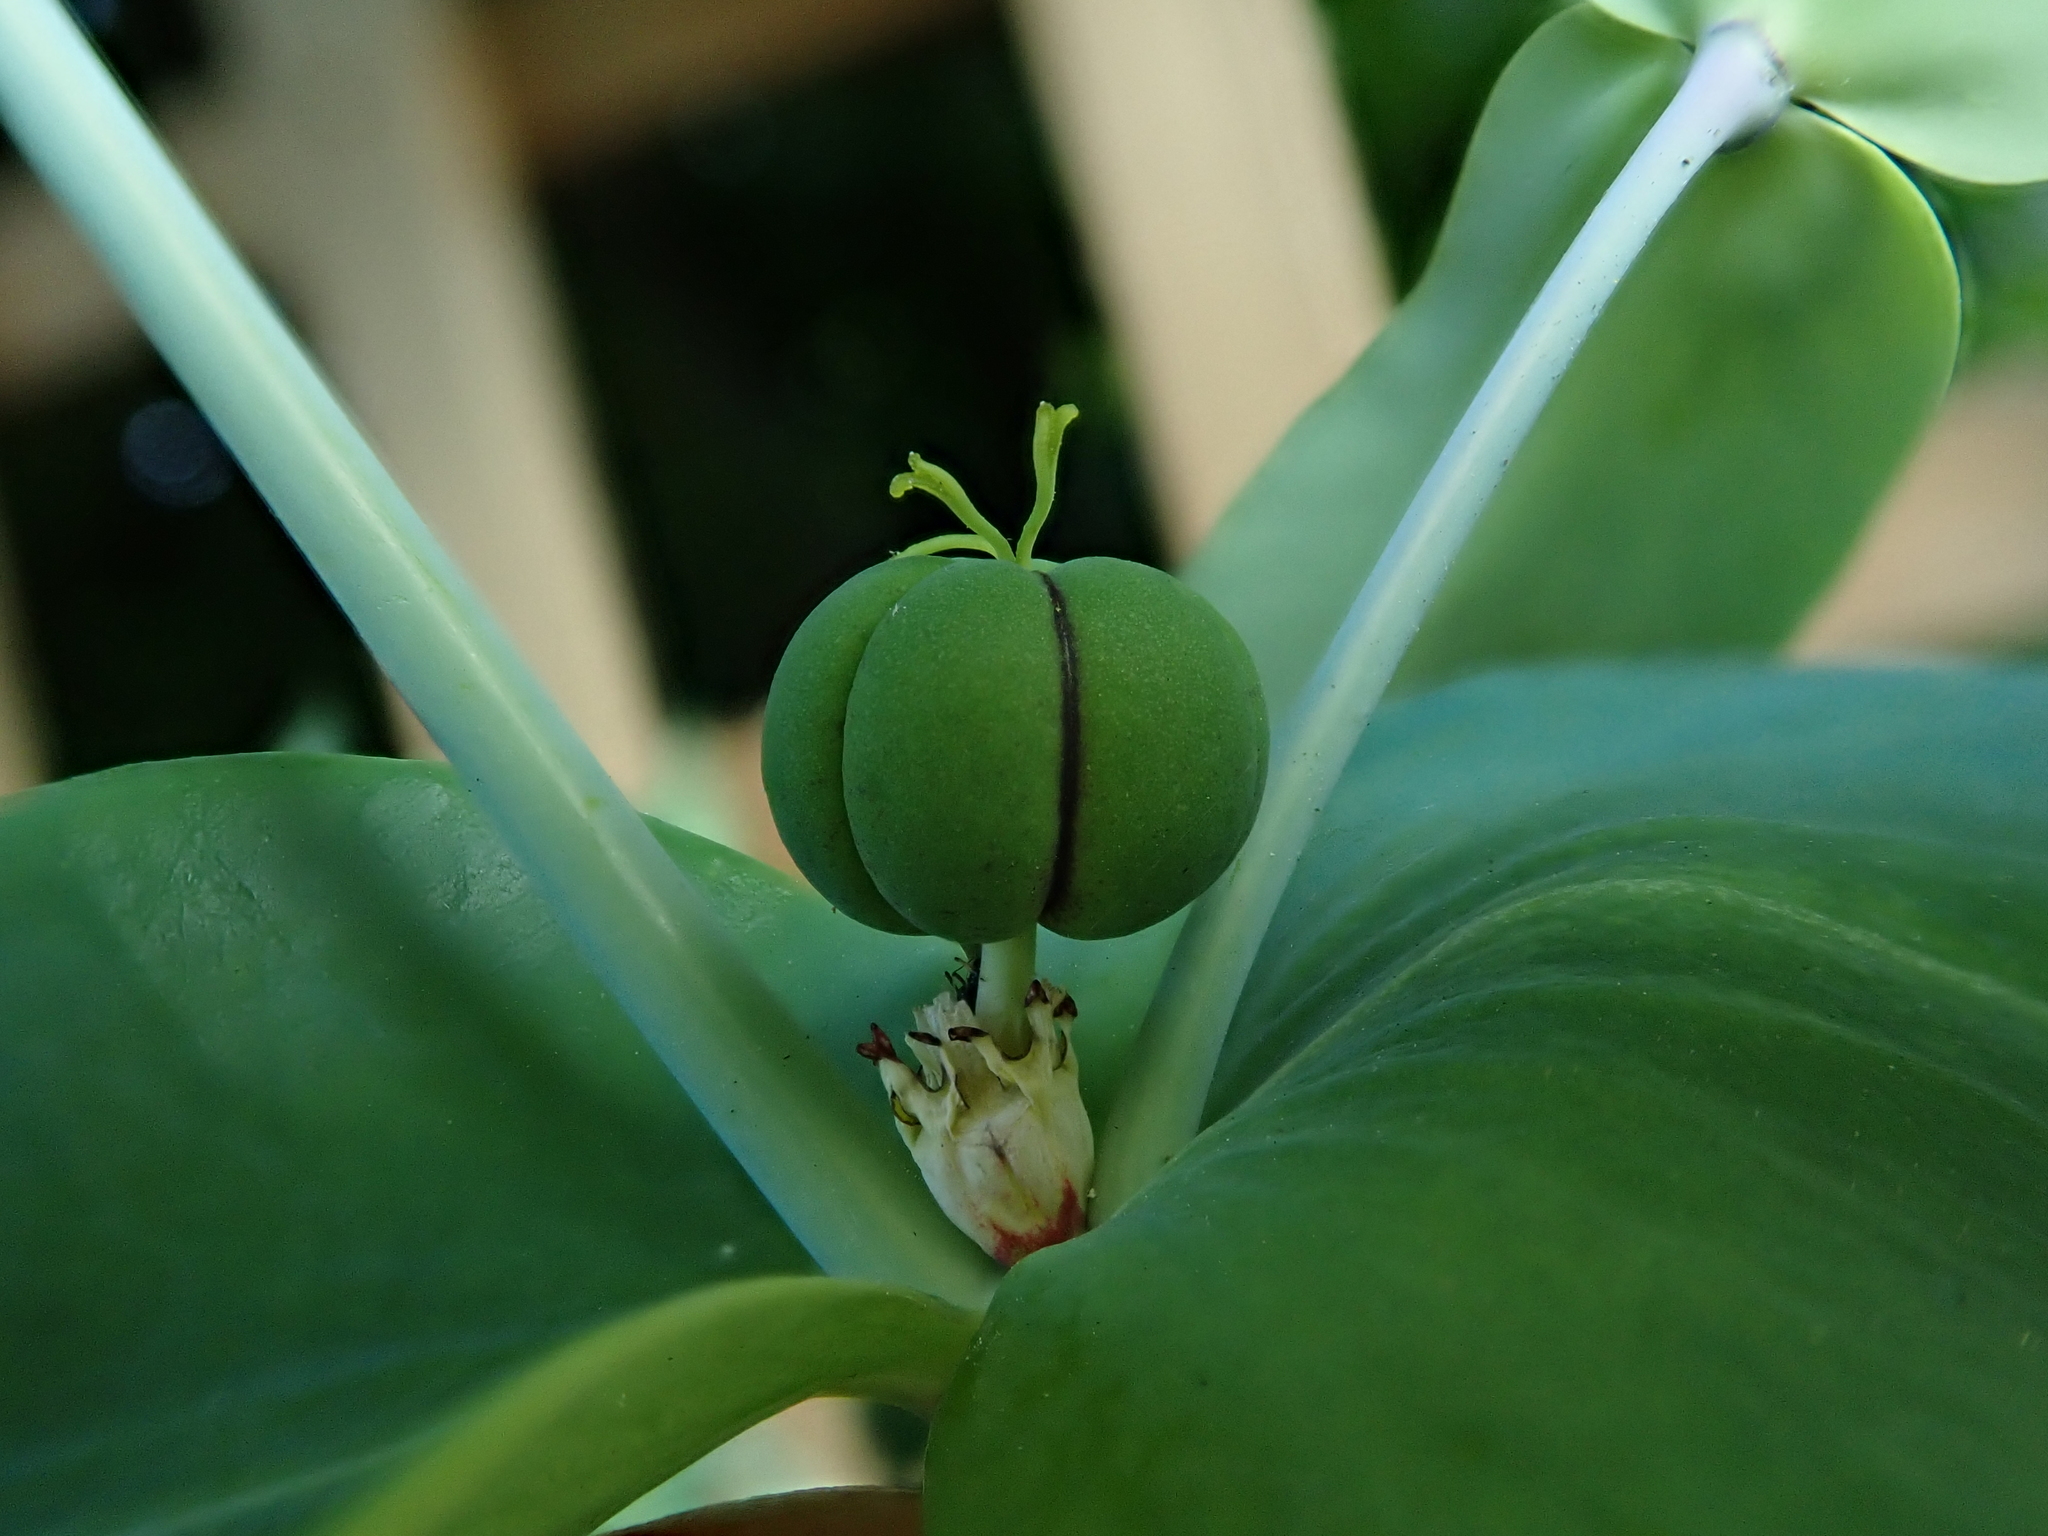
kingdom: Plantae
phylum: Tracheophyta
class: Magnoliopsida
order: Malpighiales
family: Euphorbiaceae
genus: Euphorbia
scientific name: Euphorbia lathyris
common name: Caper spurge
